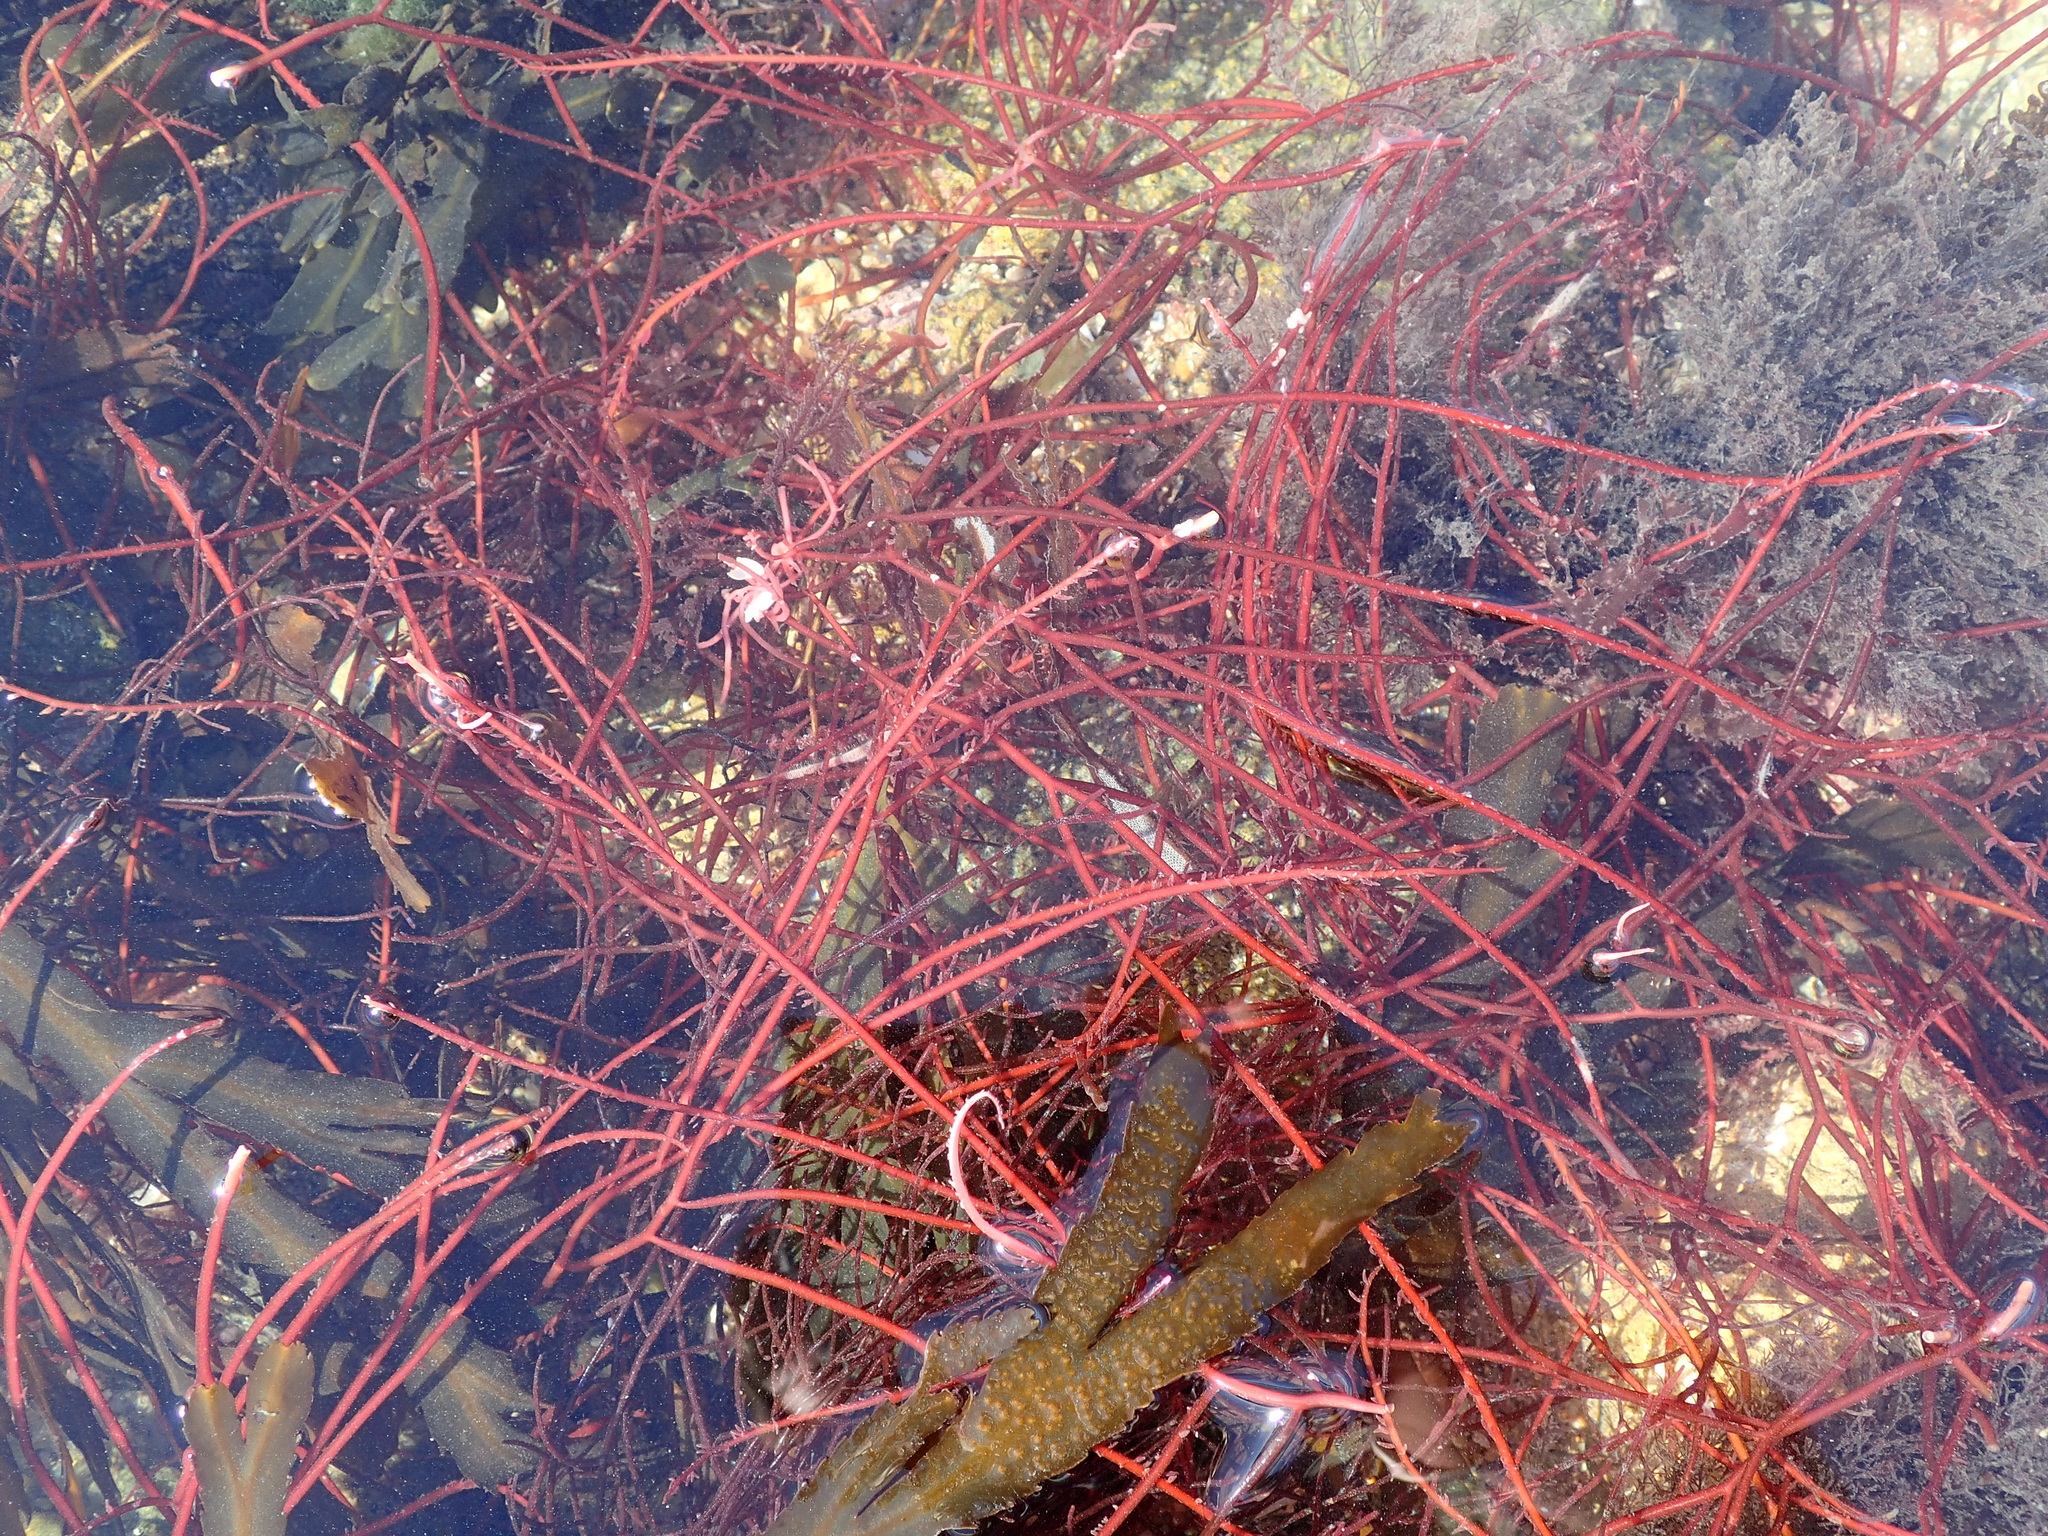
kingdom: Plantae
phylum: Rhodophyta
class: Florideophyceae
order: Gigartinales
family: Solieriaceae
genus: Solieria
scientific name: Solieria chordalis
